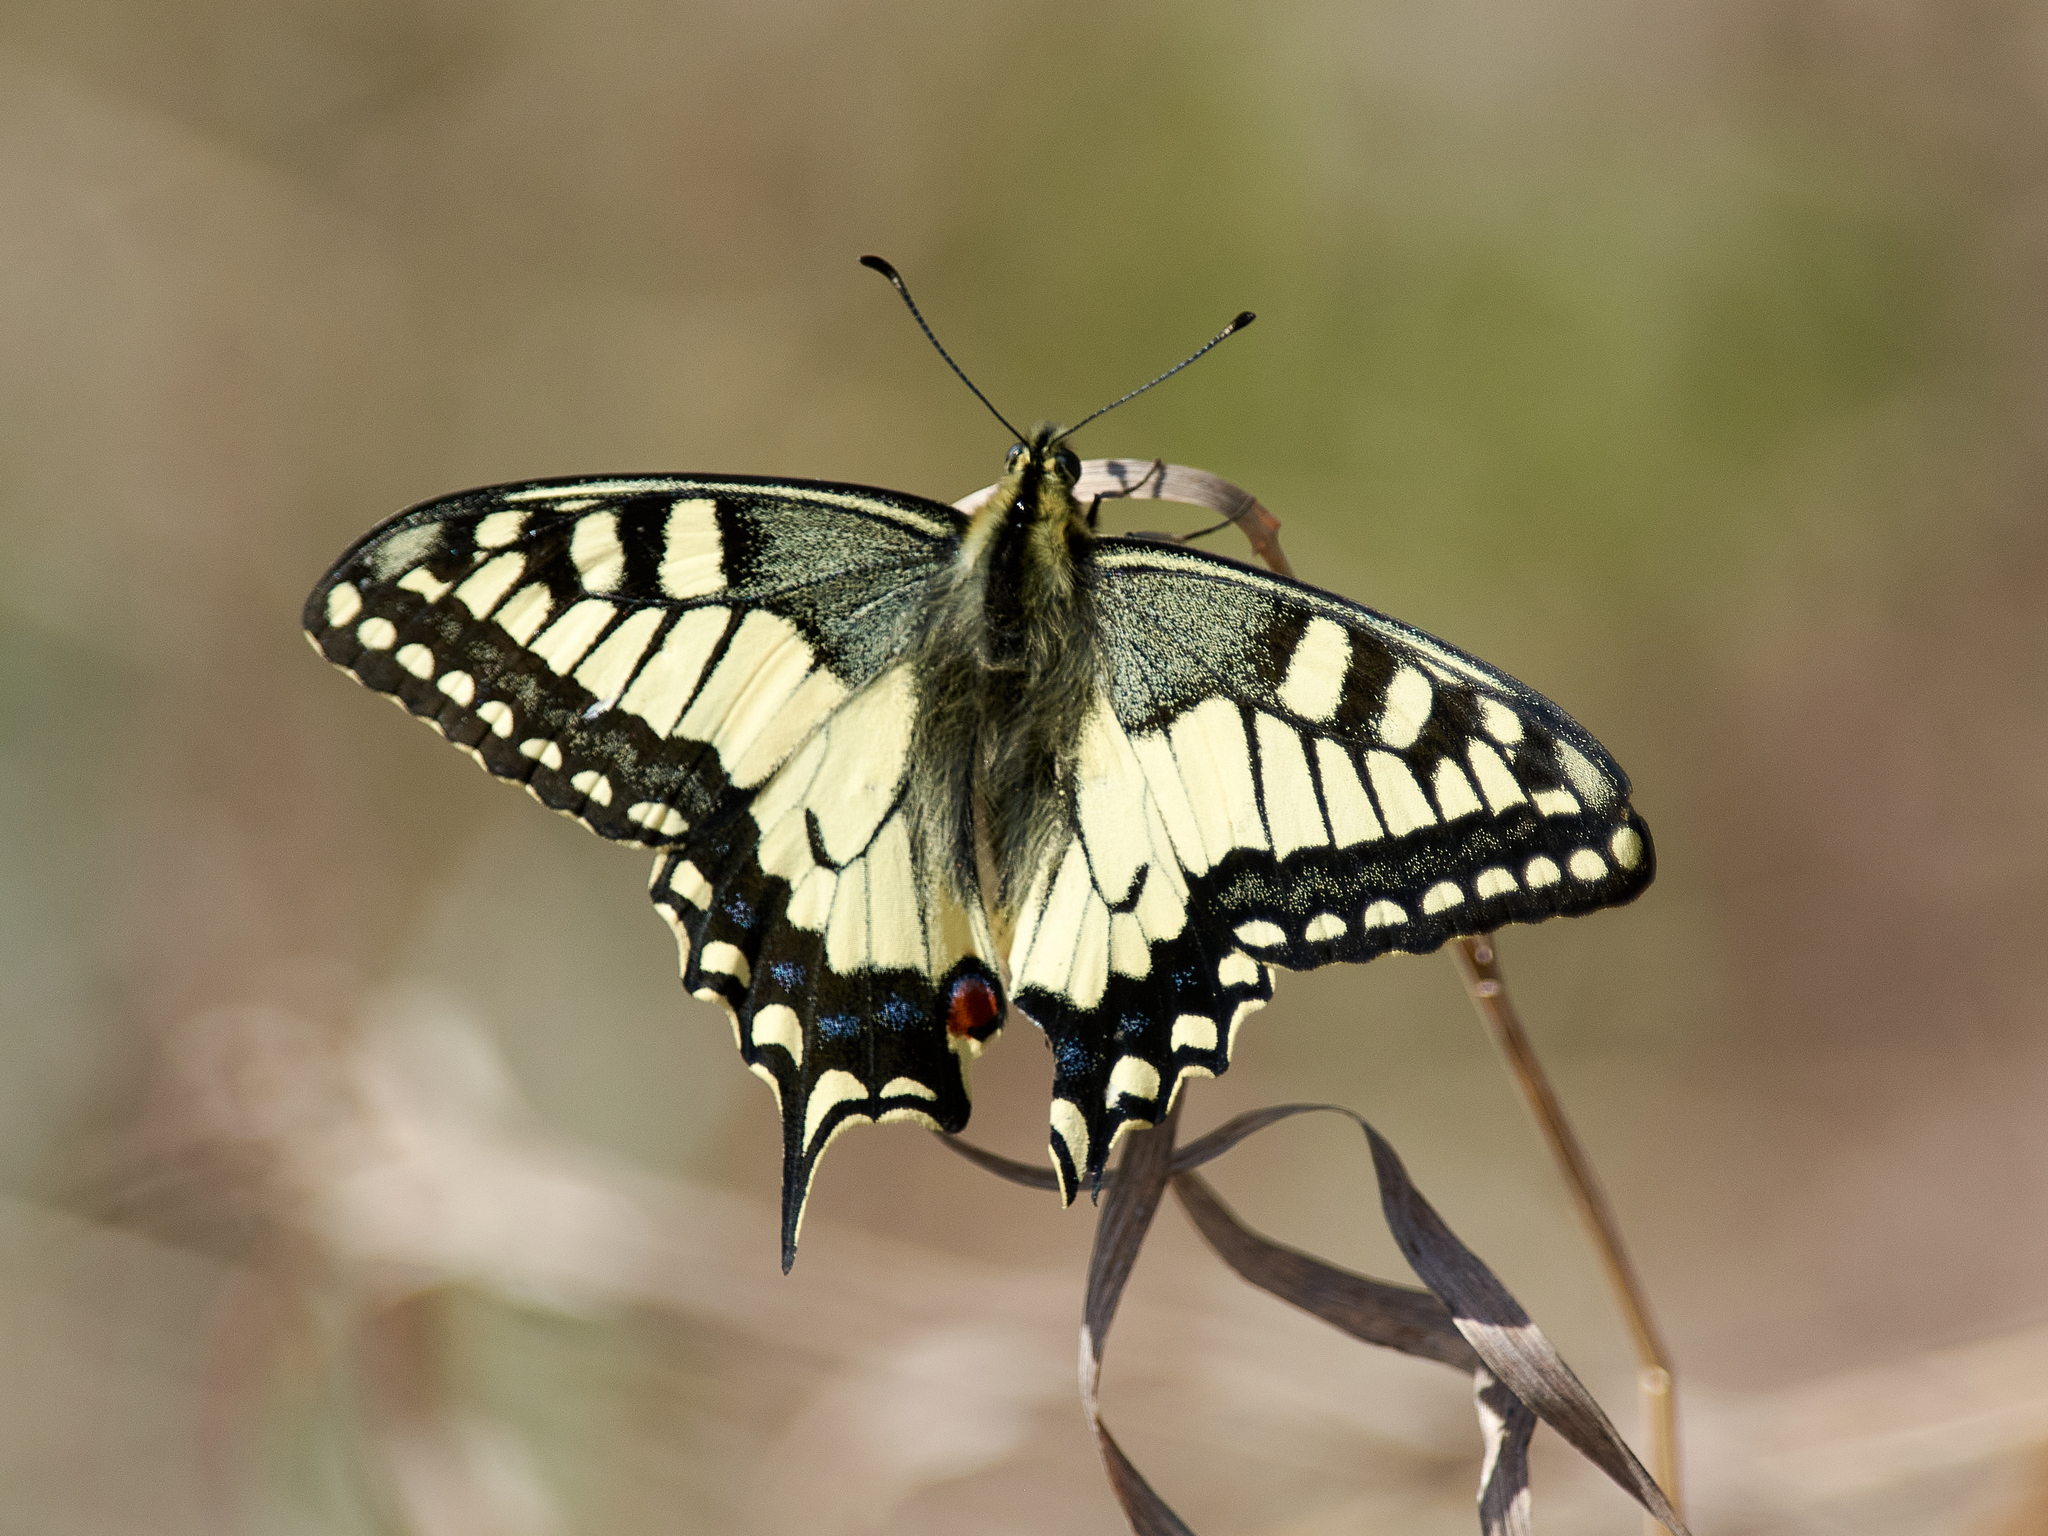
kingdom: Animalia
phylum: Arthropoda
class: Insecta
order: Lepidoptera
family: Papilionidae
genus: Papilio
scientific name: Papilio machaon
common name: Swallowtail
